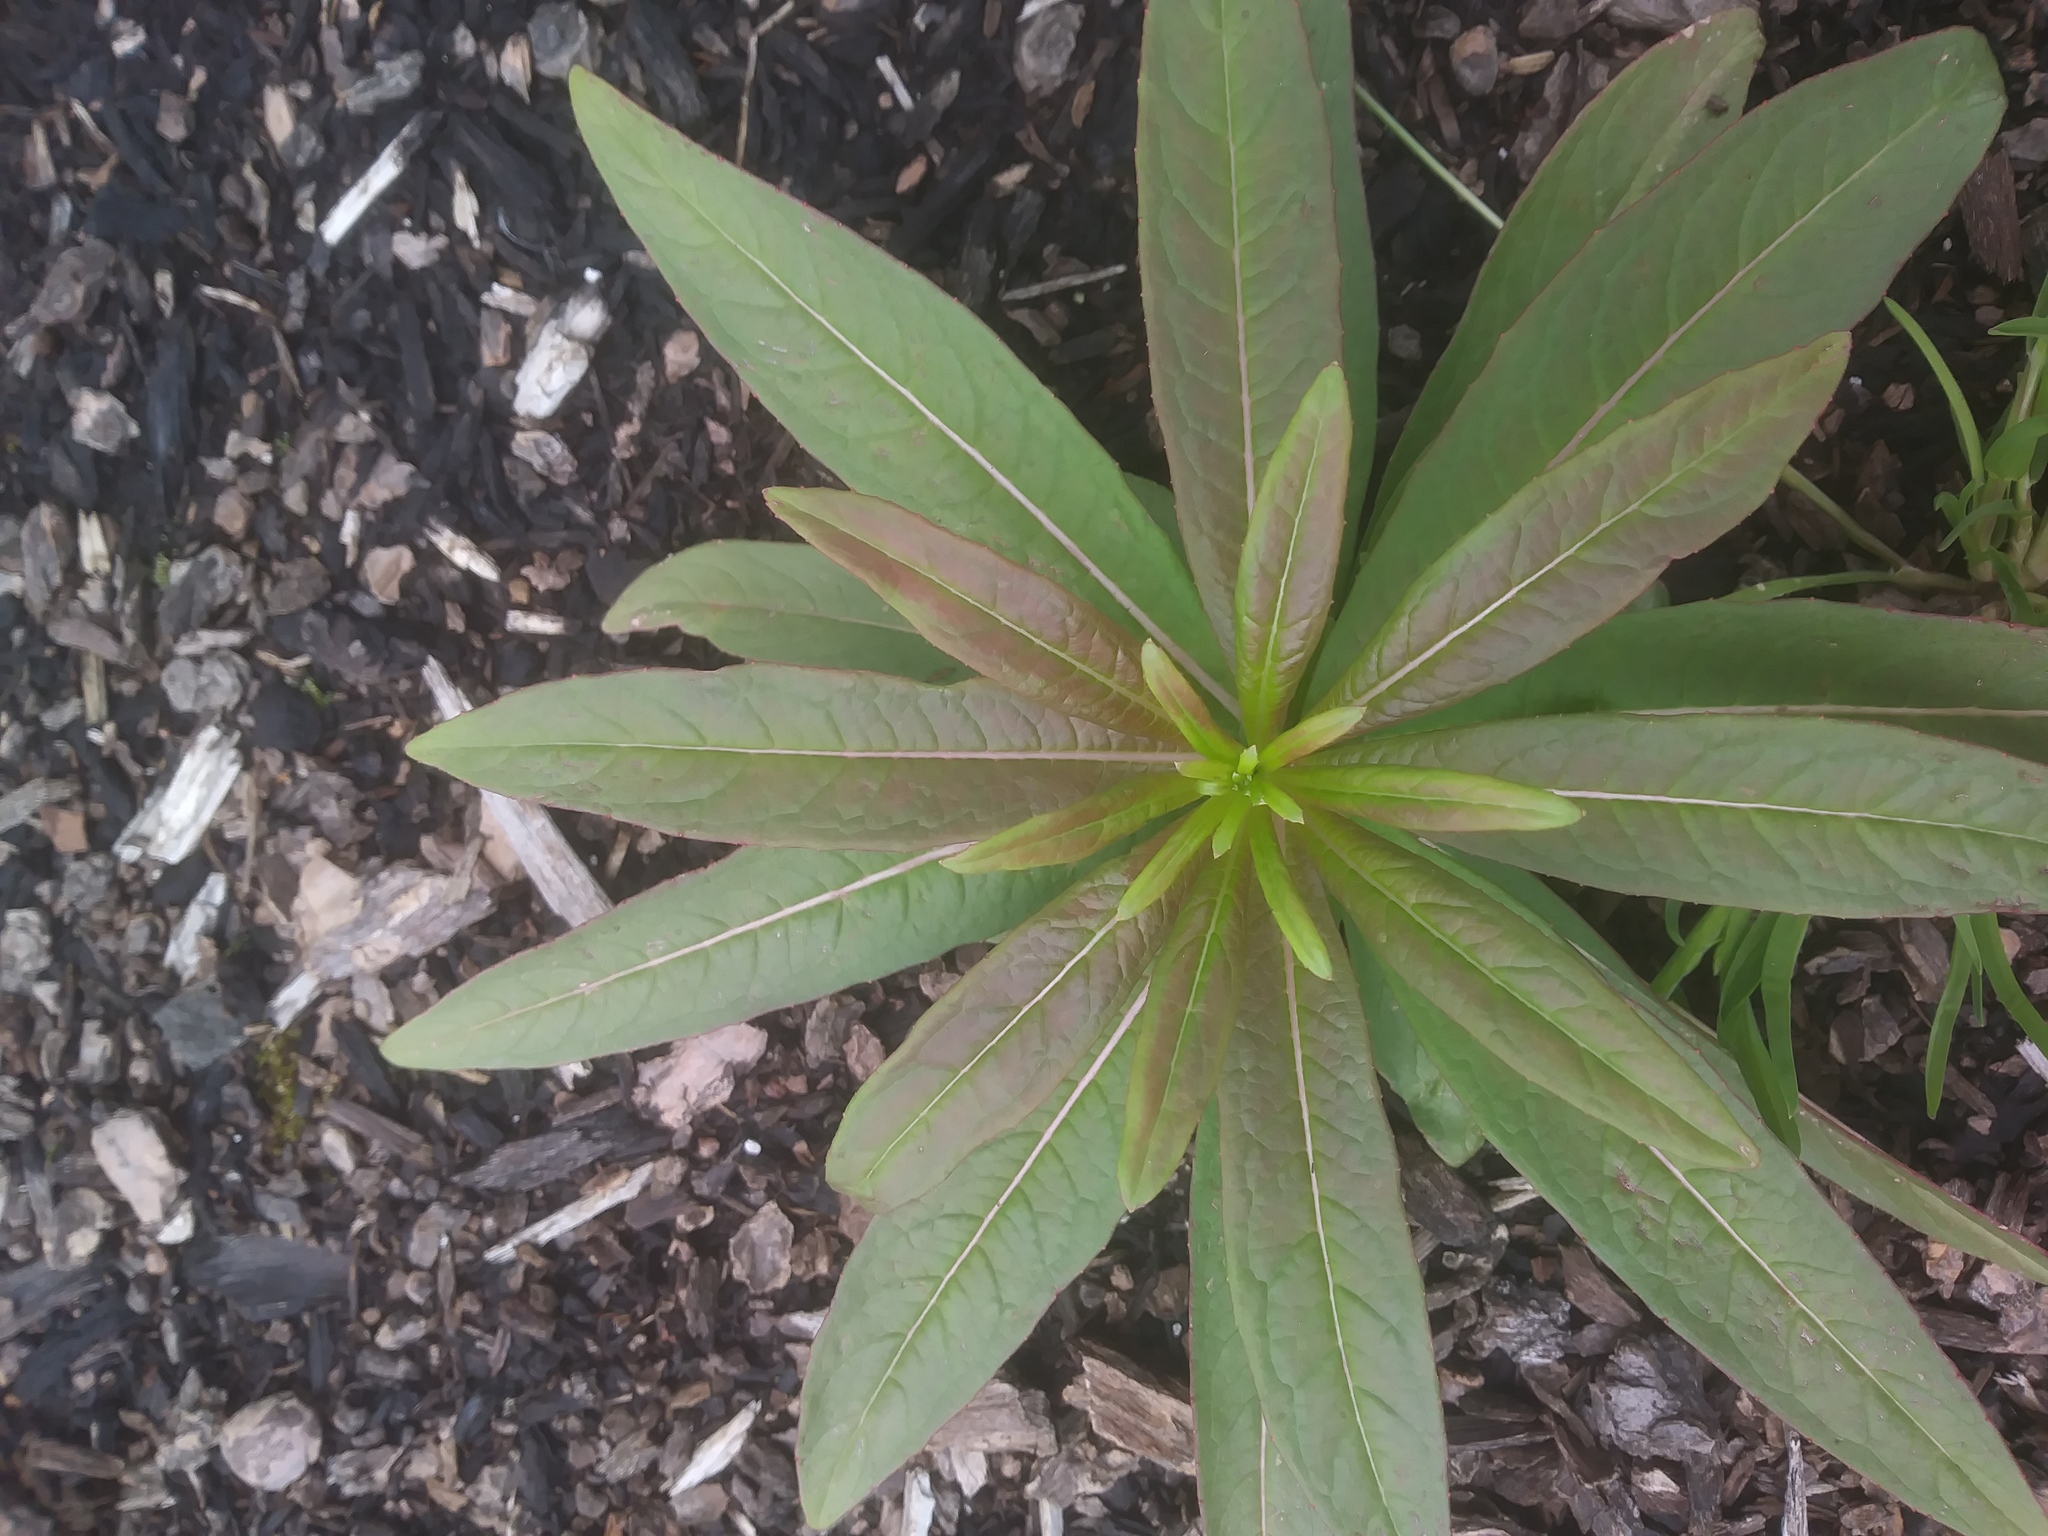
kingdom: Plantae
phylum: Tracheophyta
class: Magnoliopsida
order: Myrtales
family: Onagraceae
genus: Chamaenerion
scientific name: Chamaenerion angustifolium
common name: Fireweed
